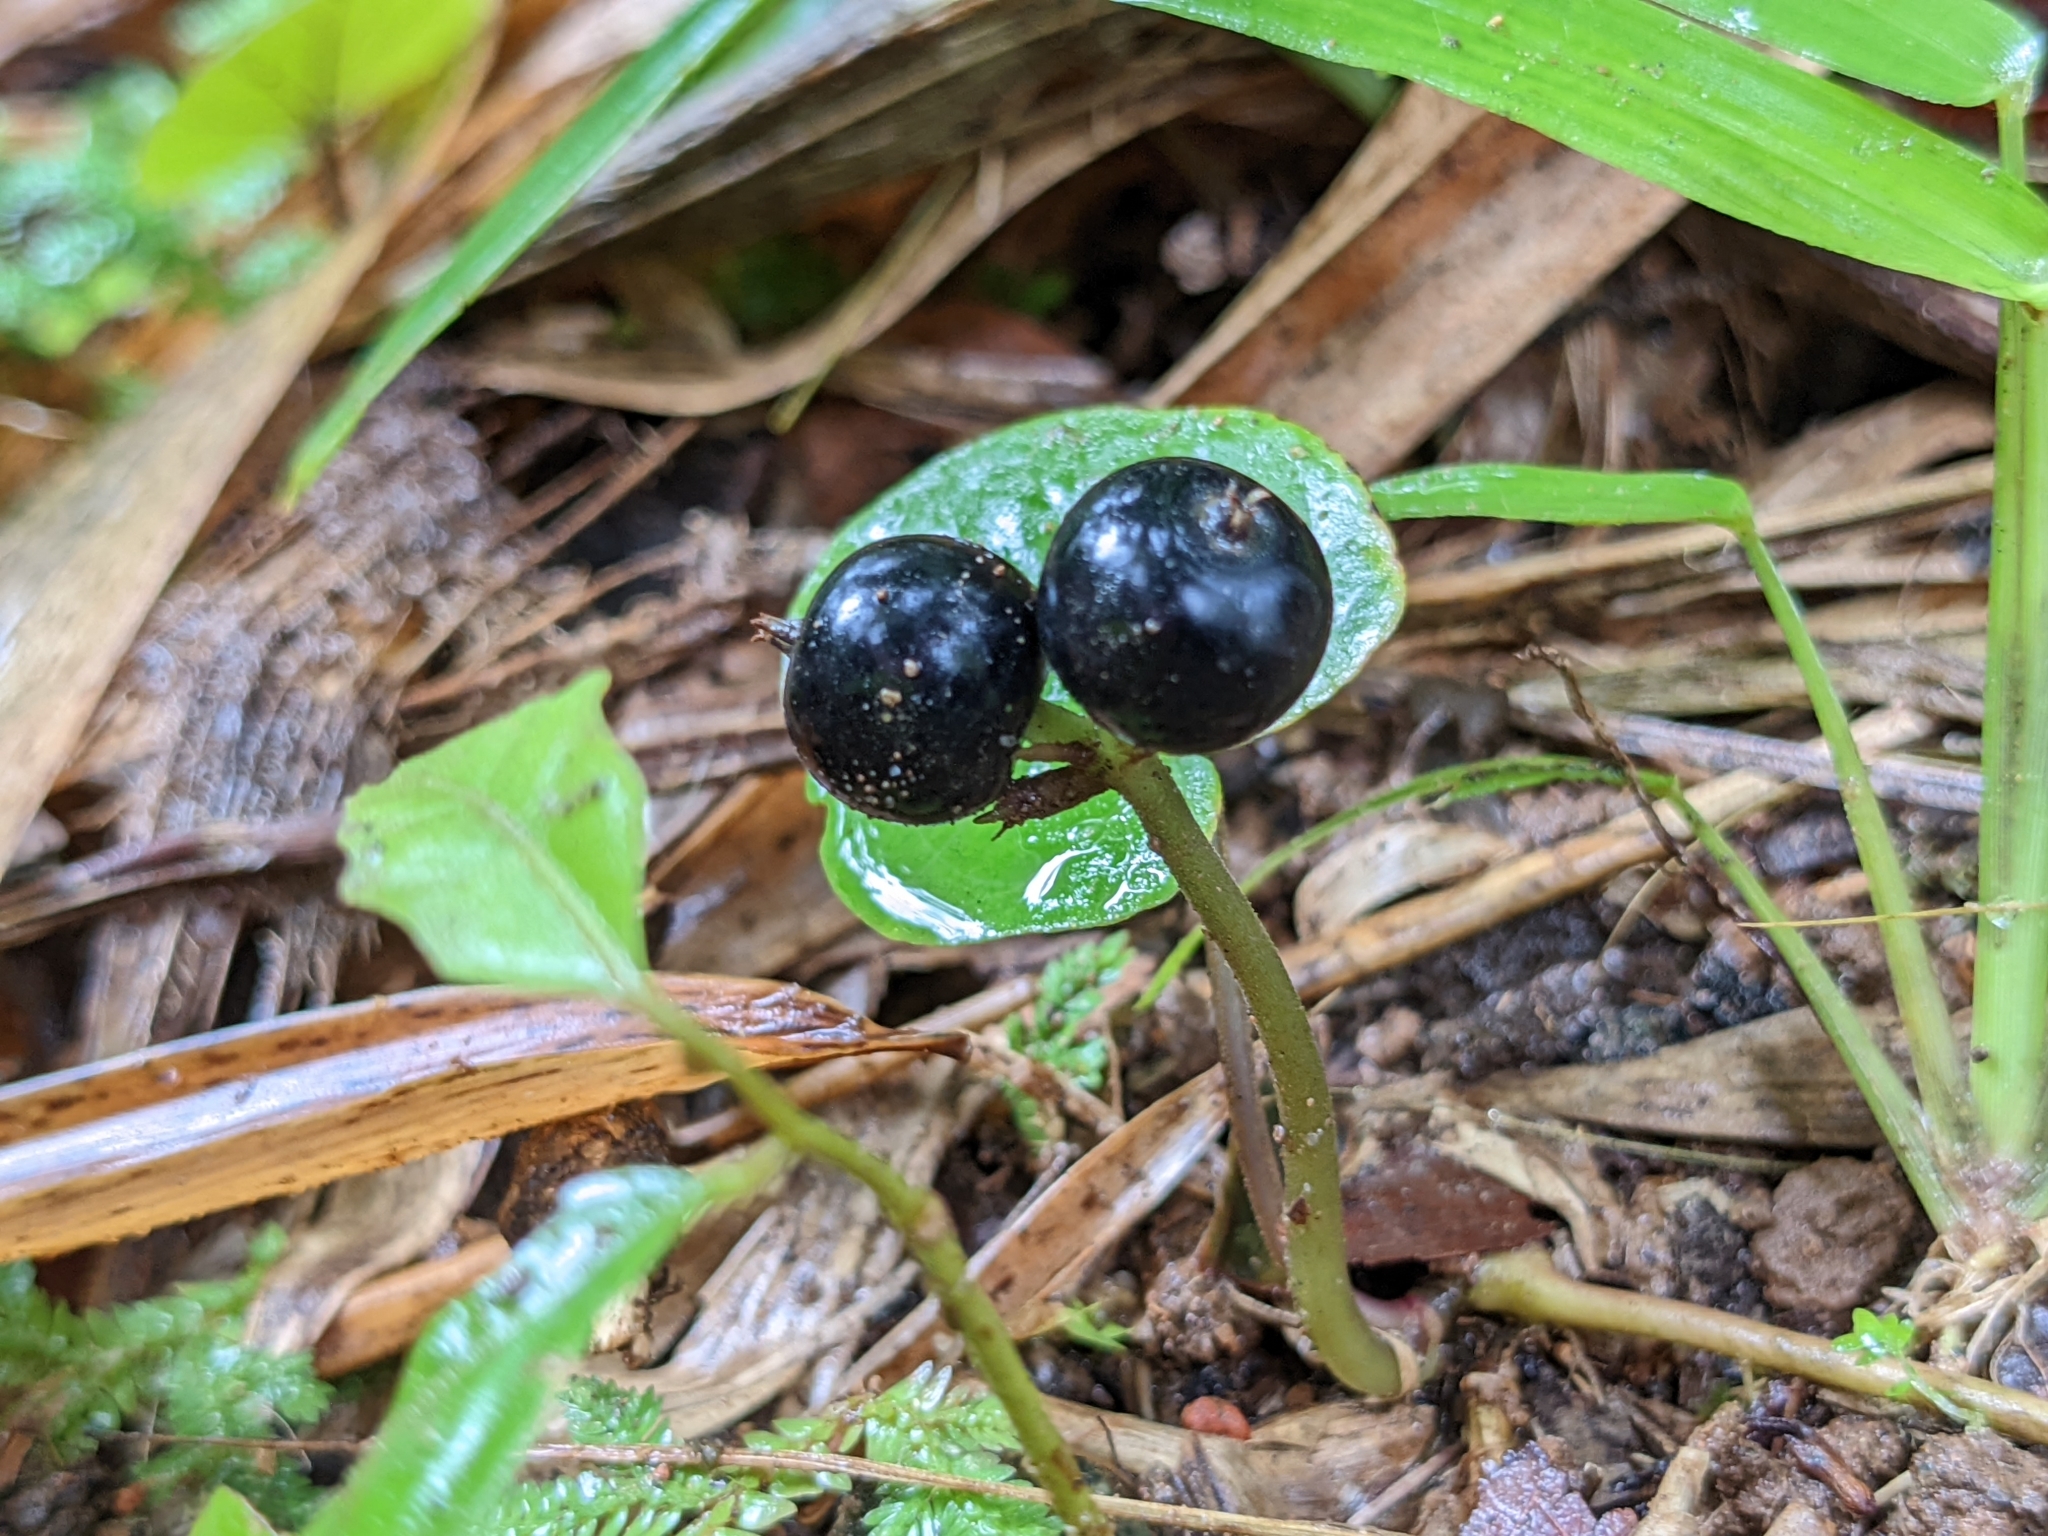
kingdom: Plantae
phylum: Tracheophyta
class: Magnoliopsida
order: Gentianales
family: Rubiaceae
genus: Geophila
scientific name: Geophila macropoda
